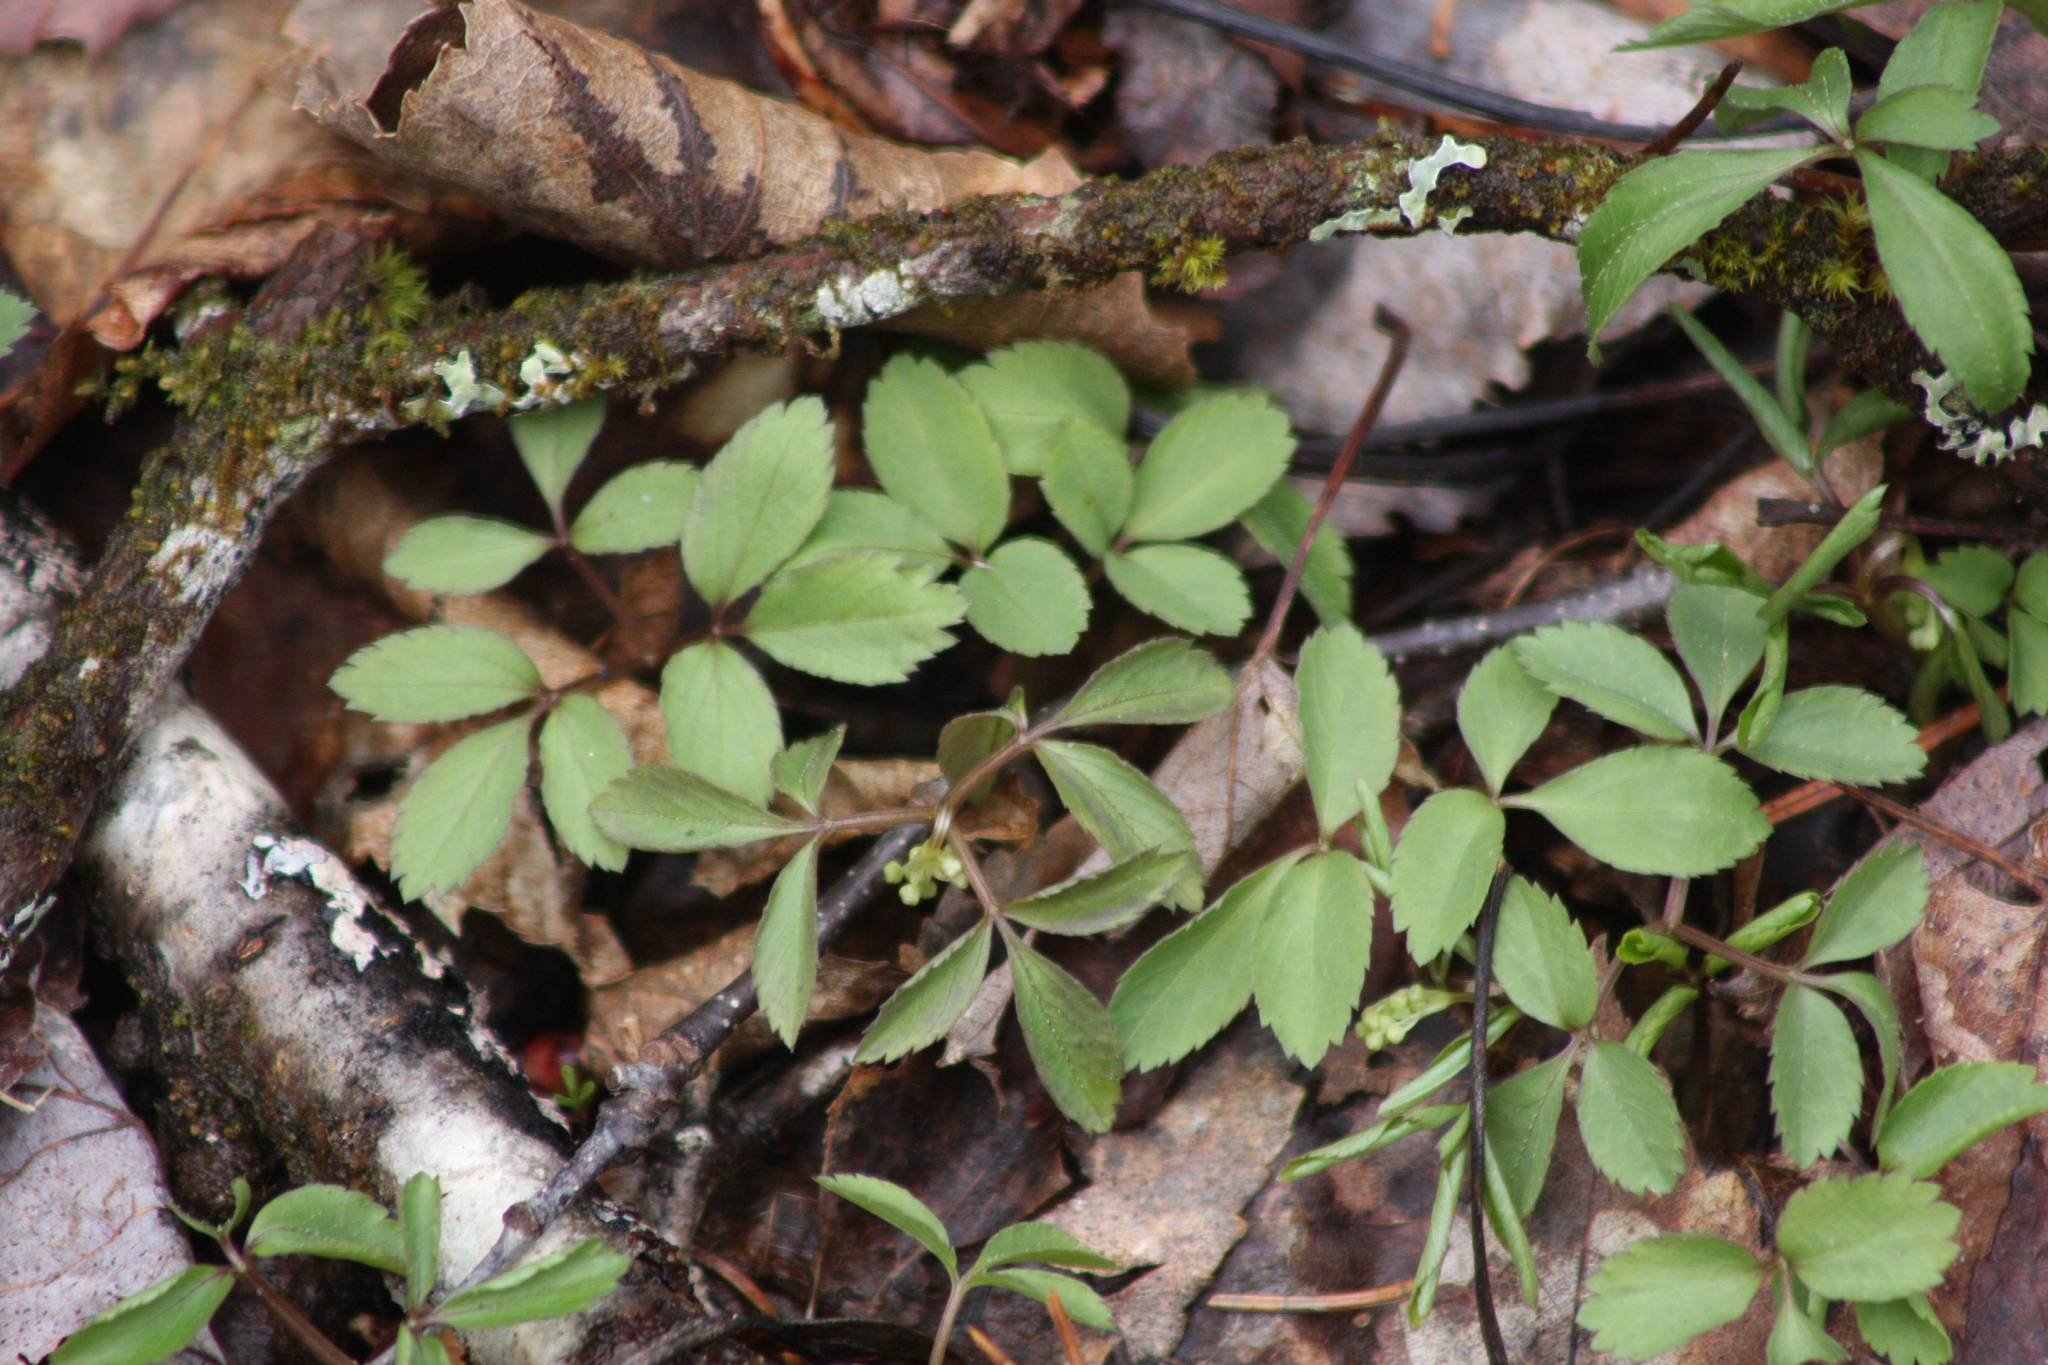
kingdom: Plantae
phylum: Tracheophyta
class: Magnoliopsida
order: Apiales
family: Araliaceae
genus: Panax
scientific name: Panax trifolius
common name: Dwarf ginseng
